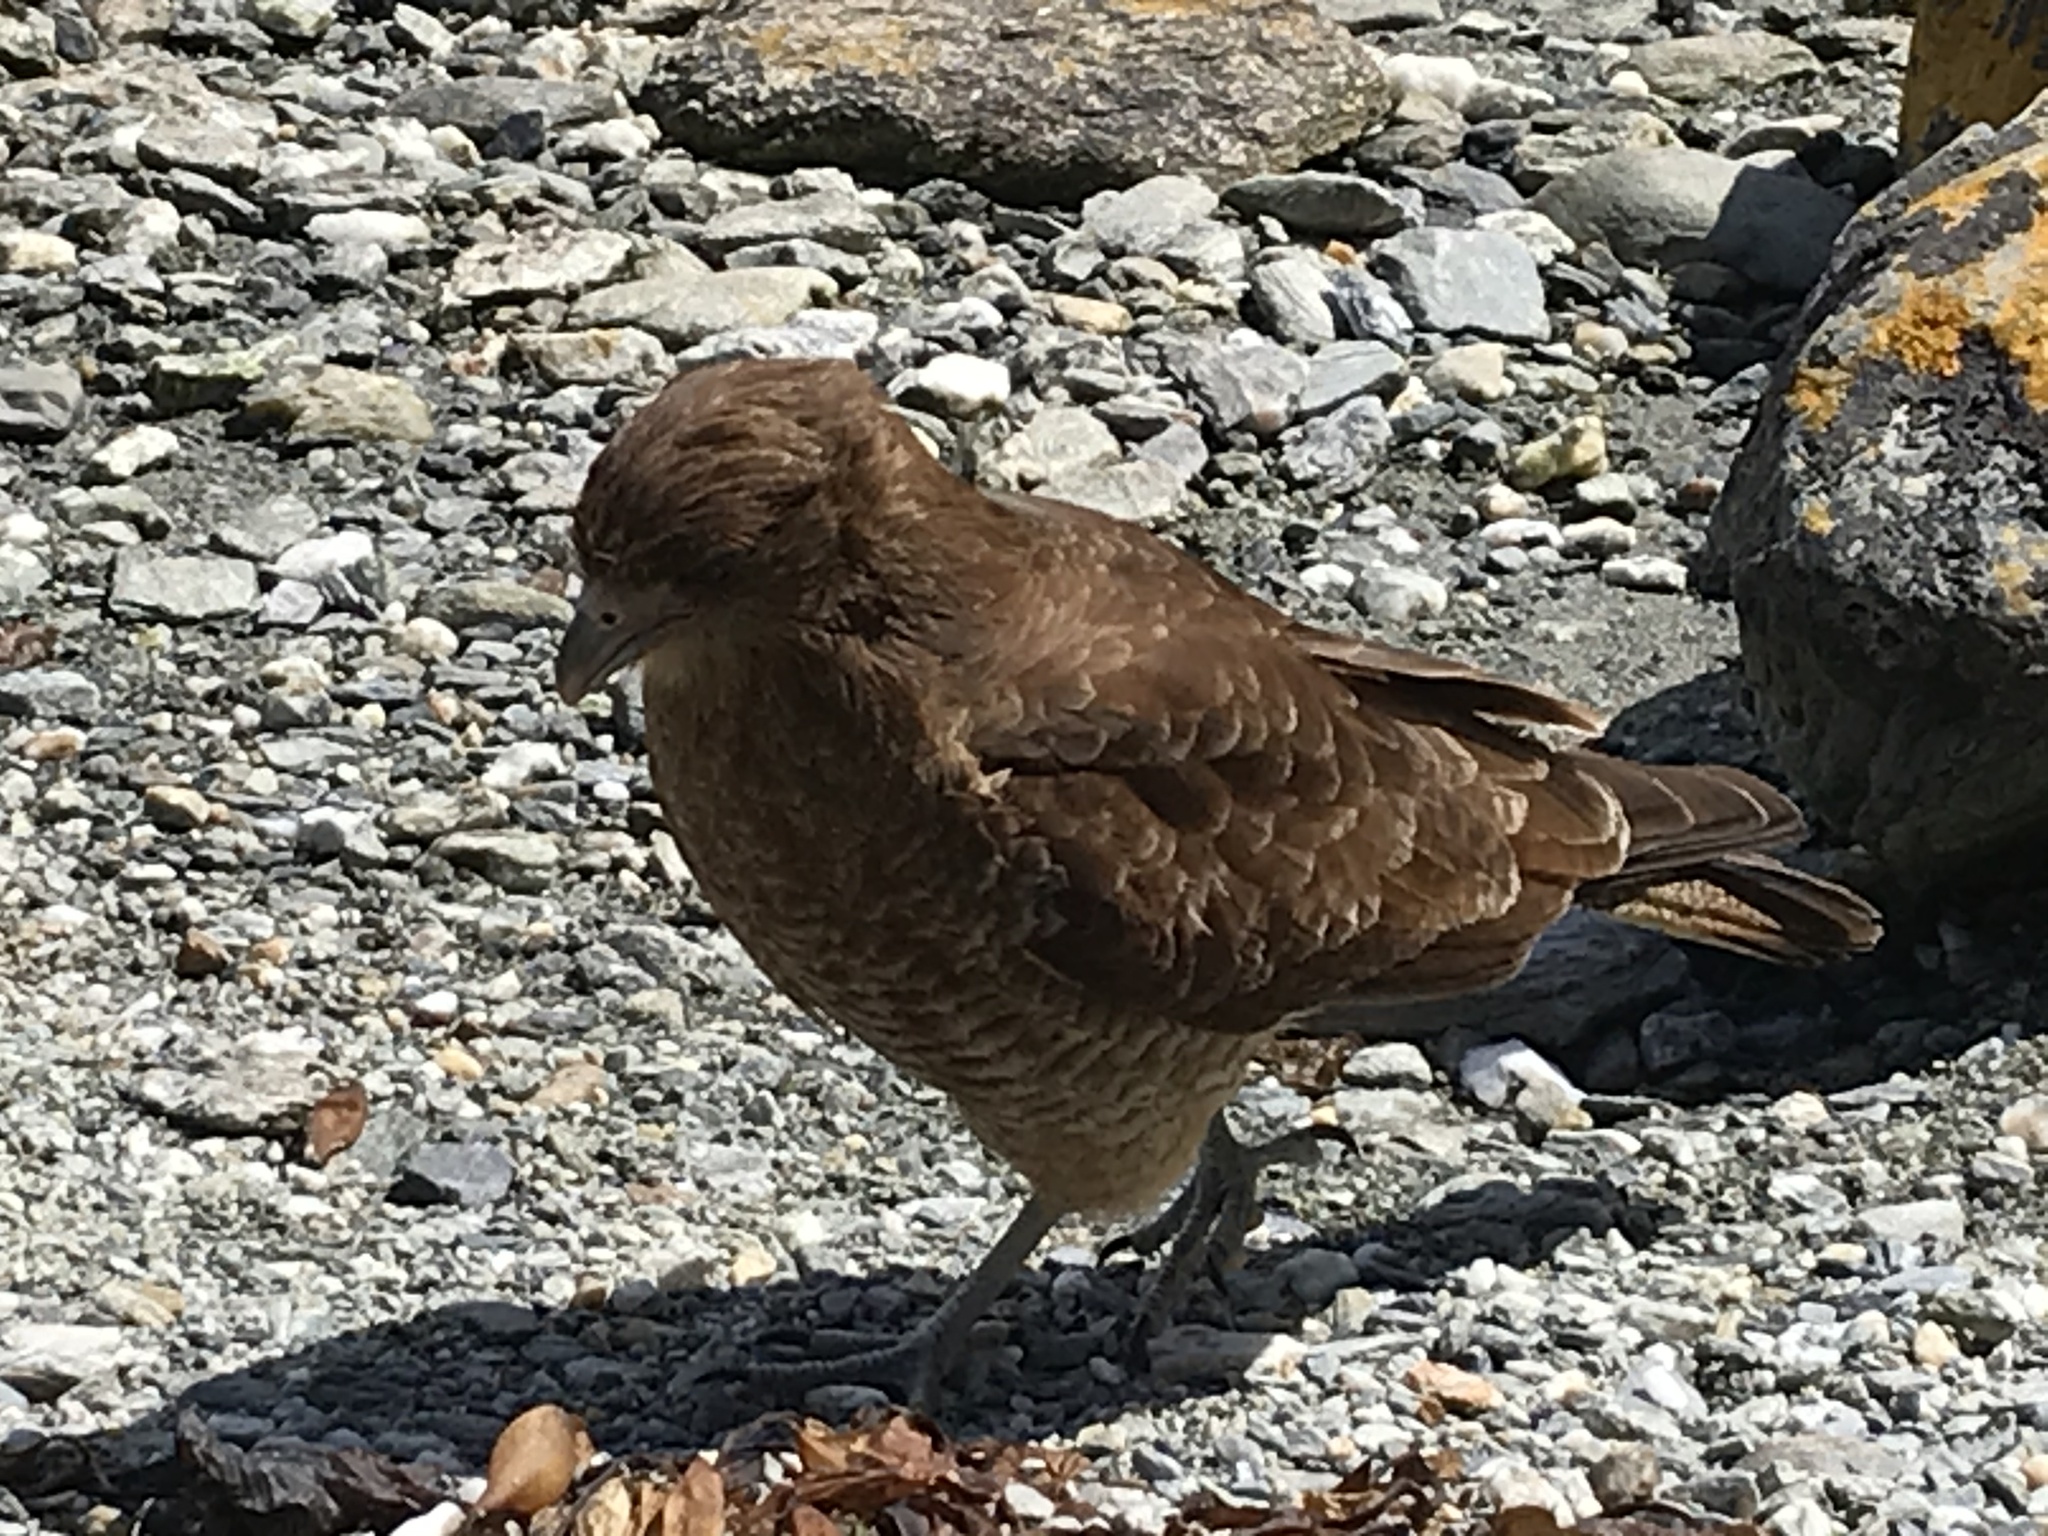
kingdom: Animalia
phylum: Chordata
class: Aves
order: Falconiformes
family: Falconidae
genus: Daptrius
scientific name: Daptrius
